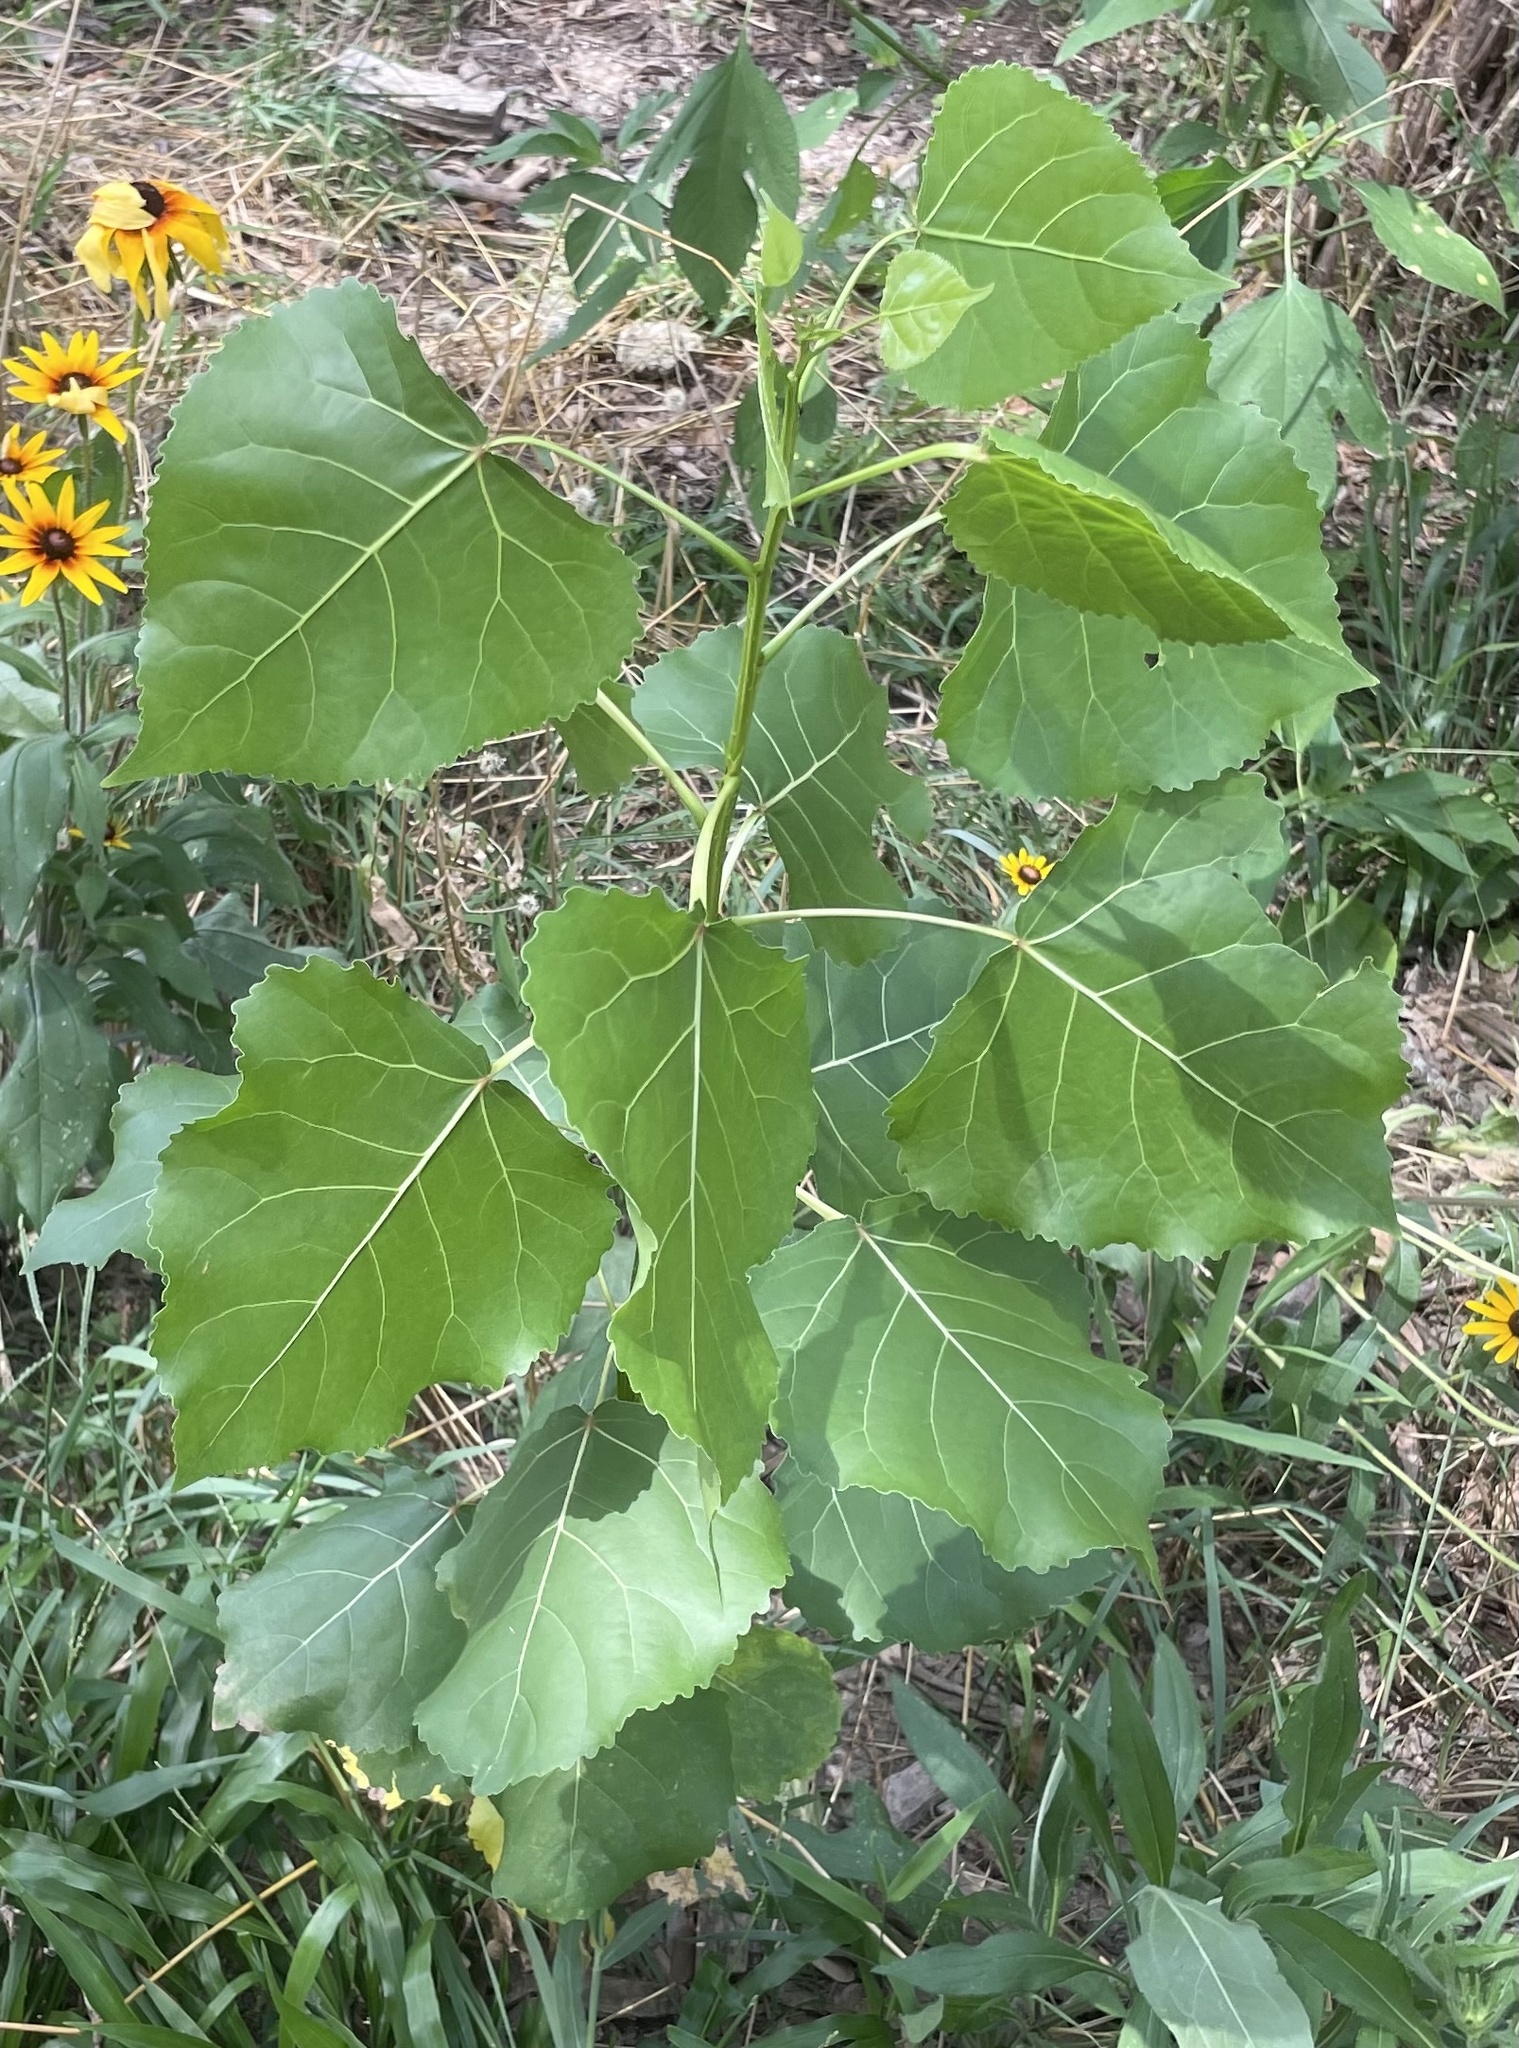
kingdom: Plantae
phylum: Tracheophyta
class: Magnoliopsida
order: Malpighiales
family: Salicaceae
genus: Populus
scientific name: Populus deltoides
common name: Eastern cottonwood
